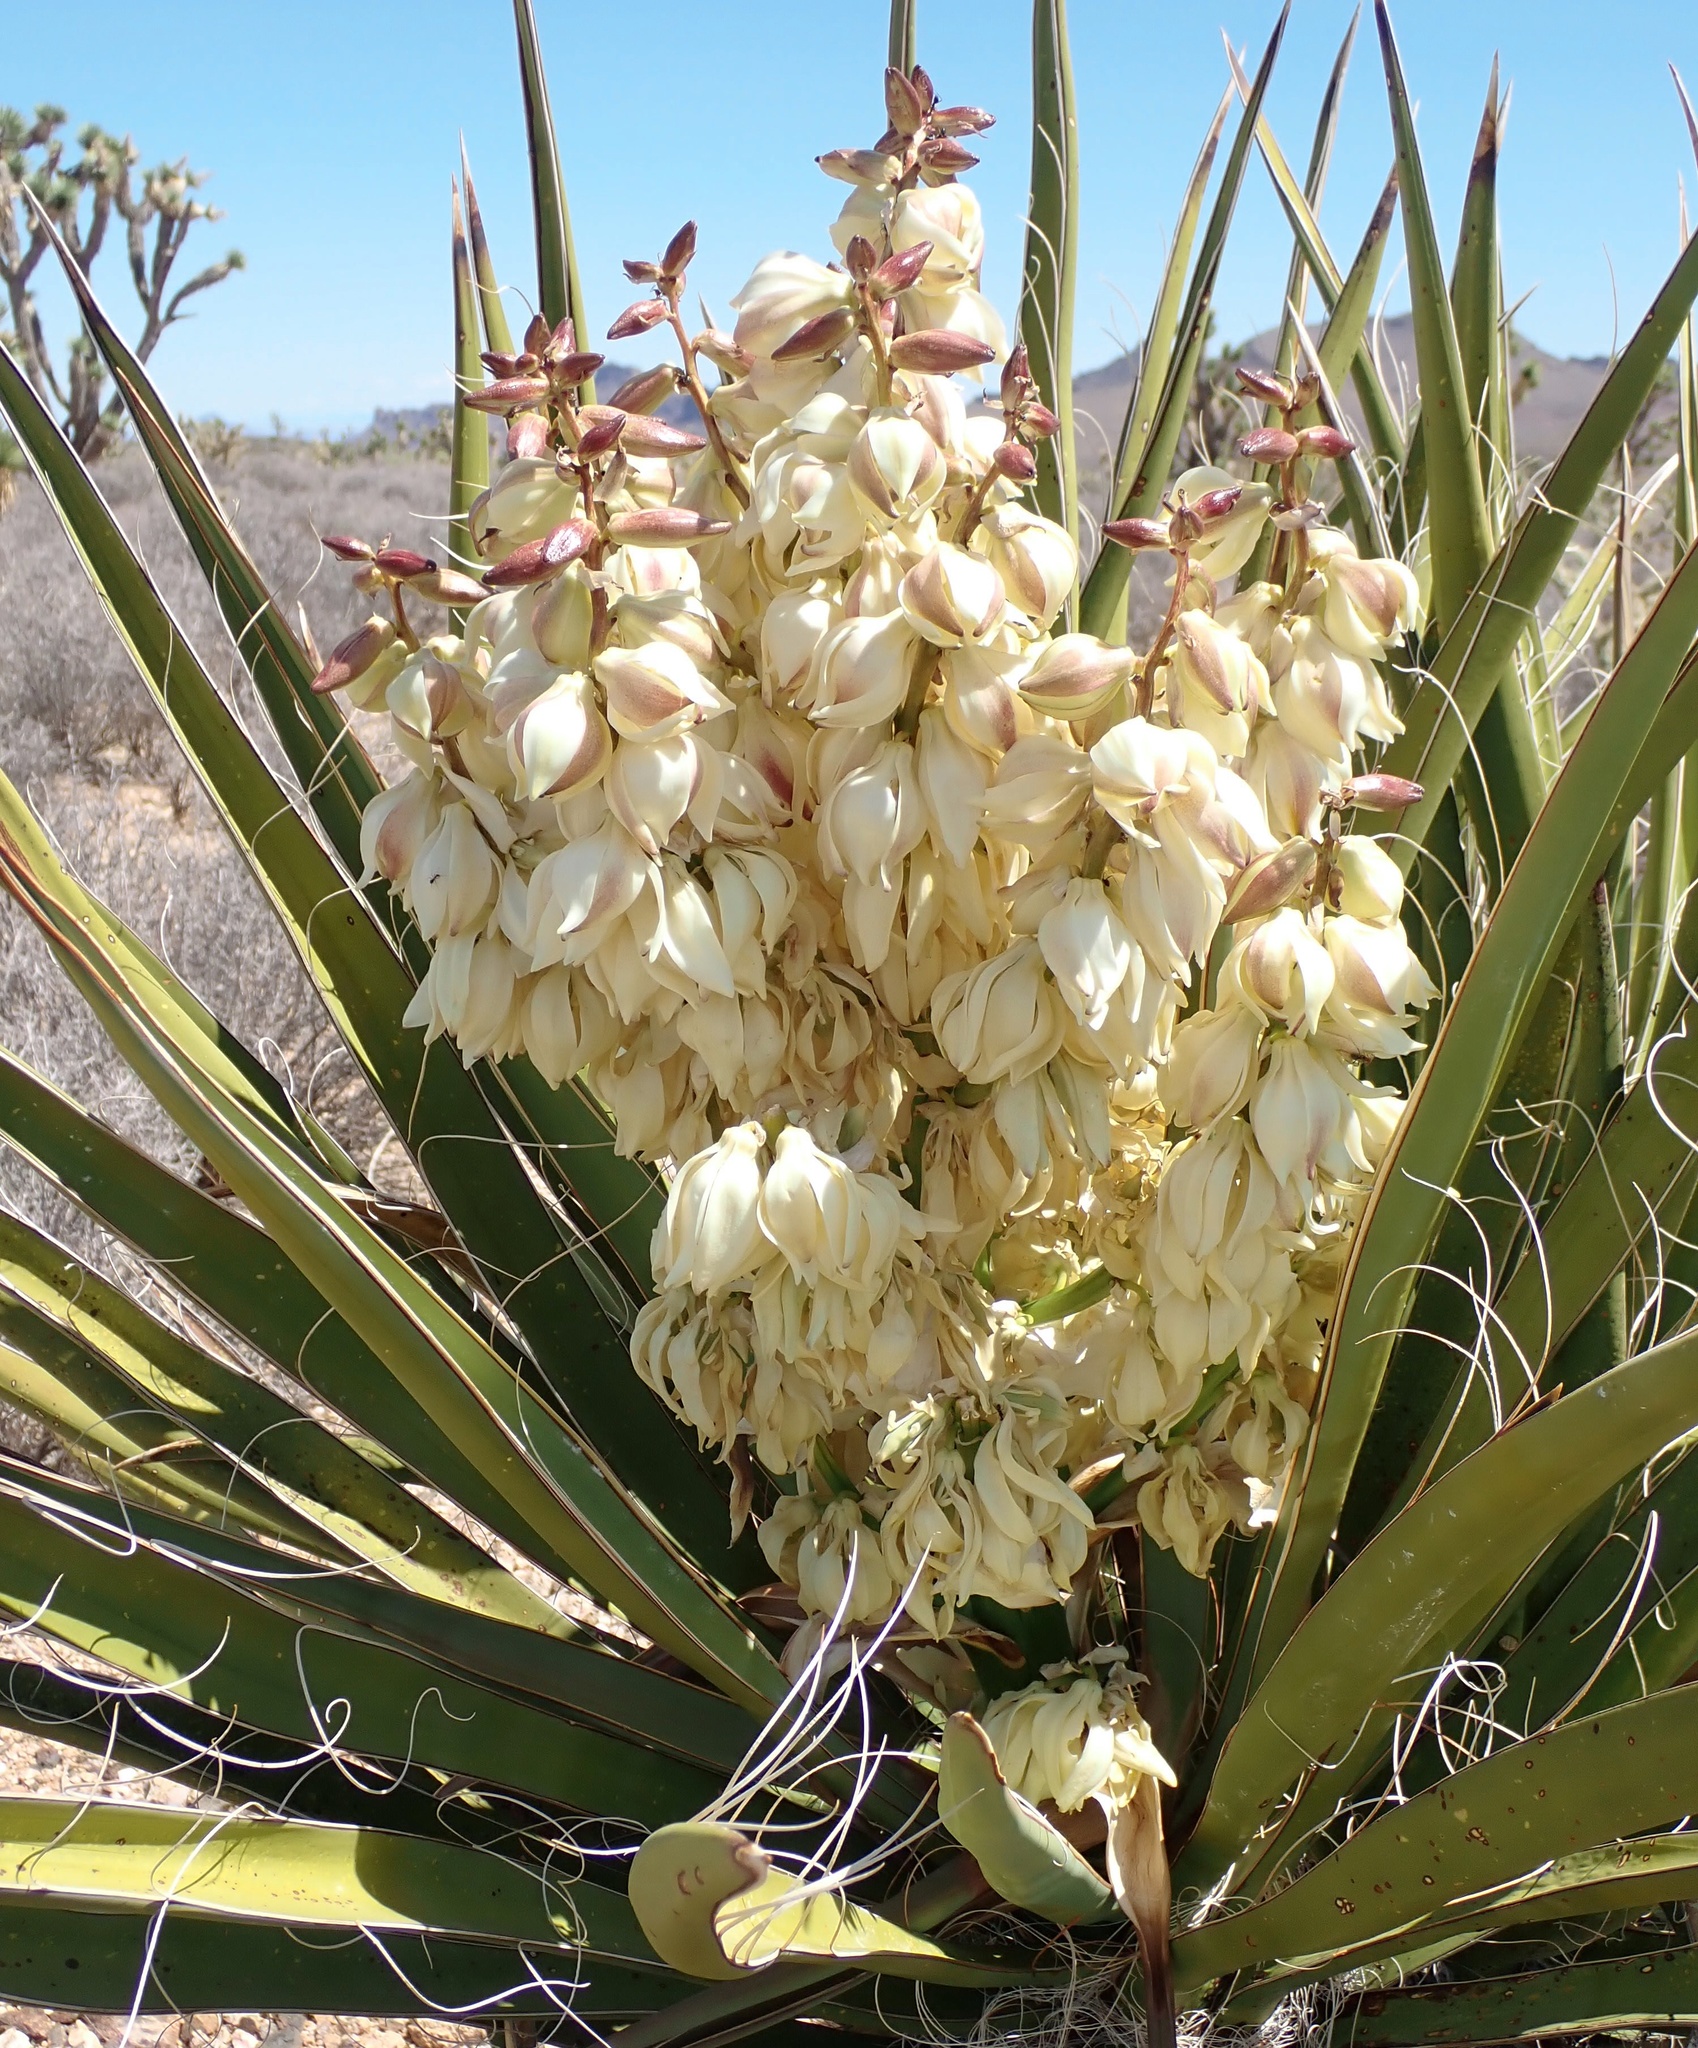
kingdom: Plantae
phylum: Tracheophyta
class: Liliopsida
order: Asparagales
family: Asparagaceae
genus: Yucca
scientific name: Yucca schidigera
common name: Mojave yucca
